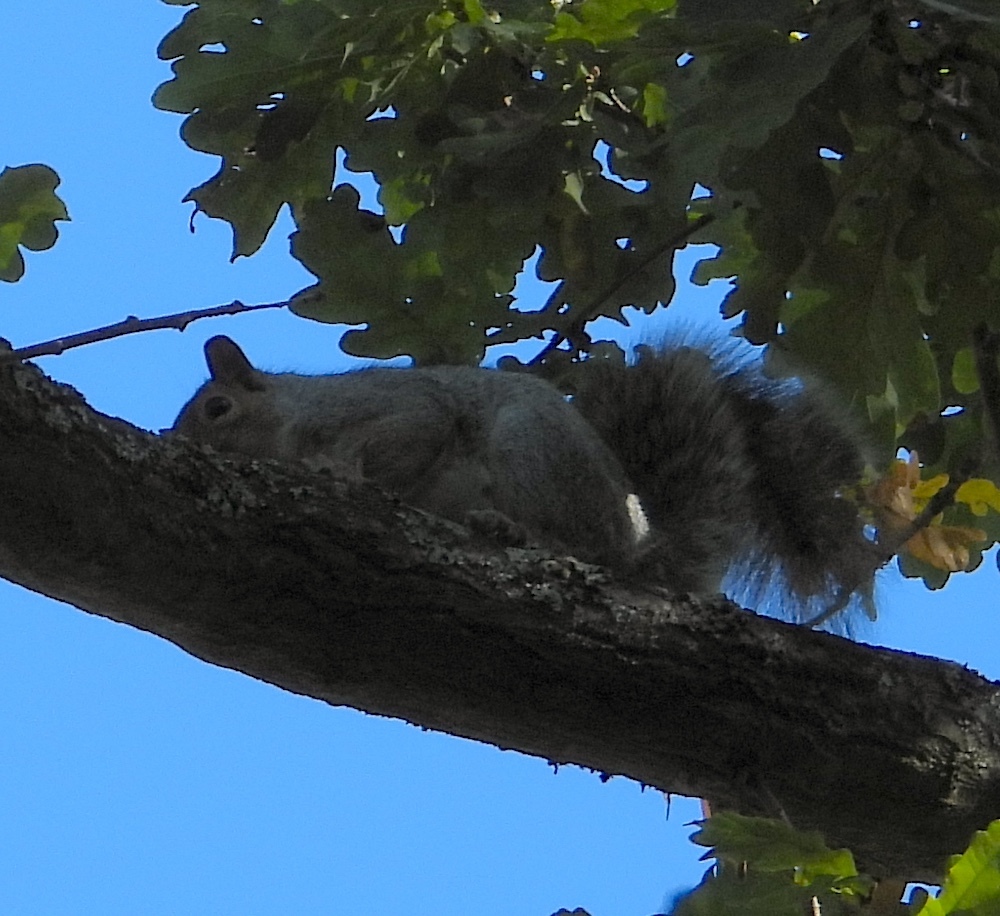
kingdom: Animalia
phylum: Chordata
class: Mammalia
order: Rodentia
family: Sciuridae
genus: Sciurus
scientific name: Sciurus carolinensis
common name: Eastern gray squirrel
